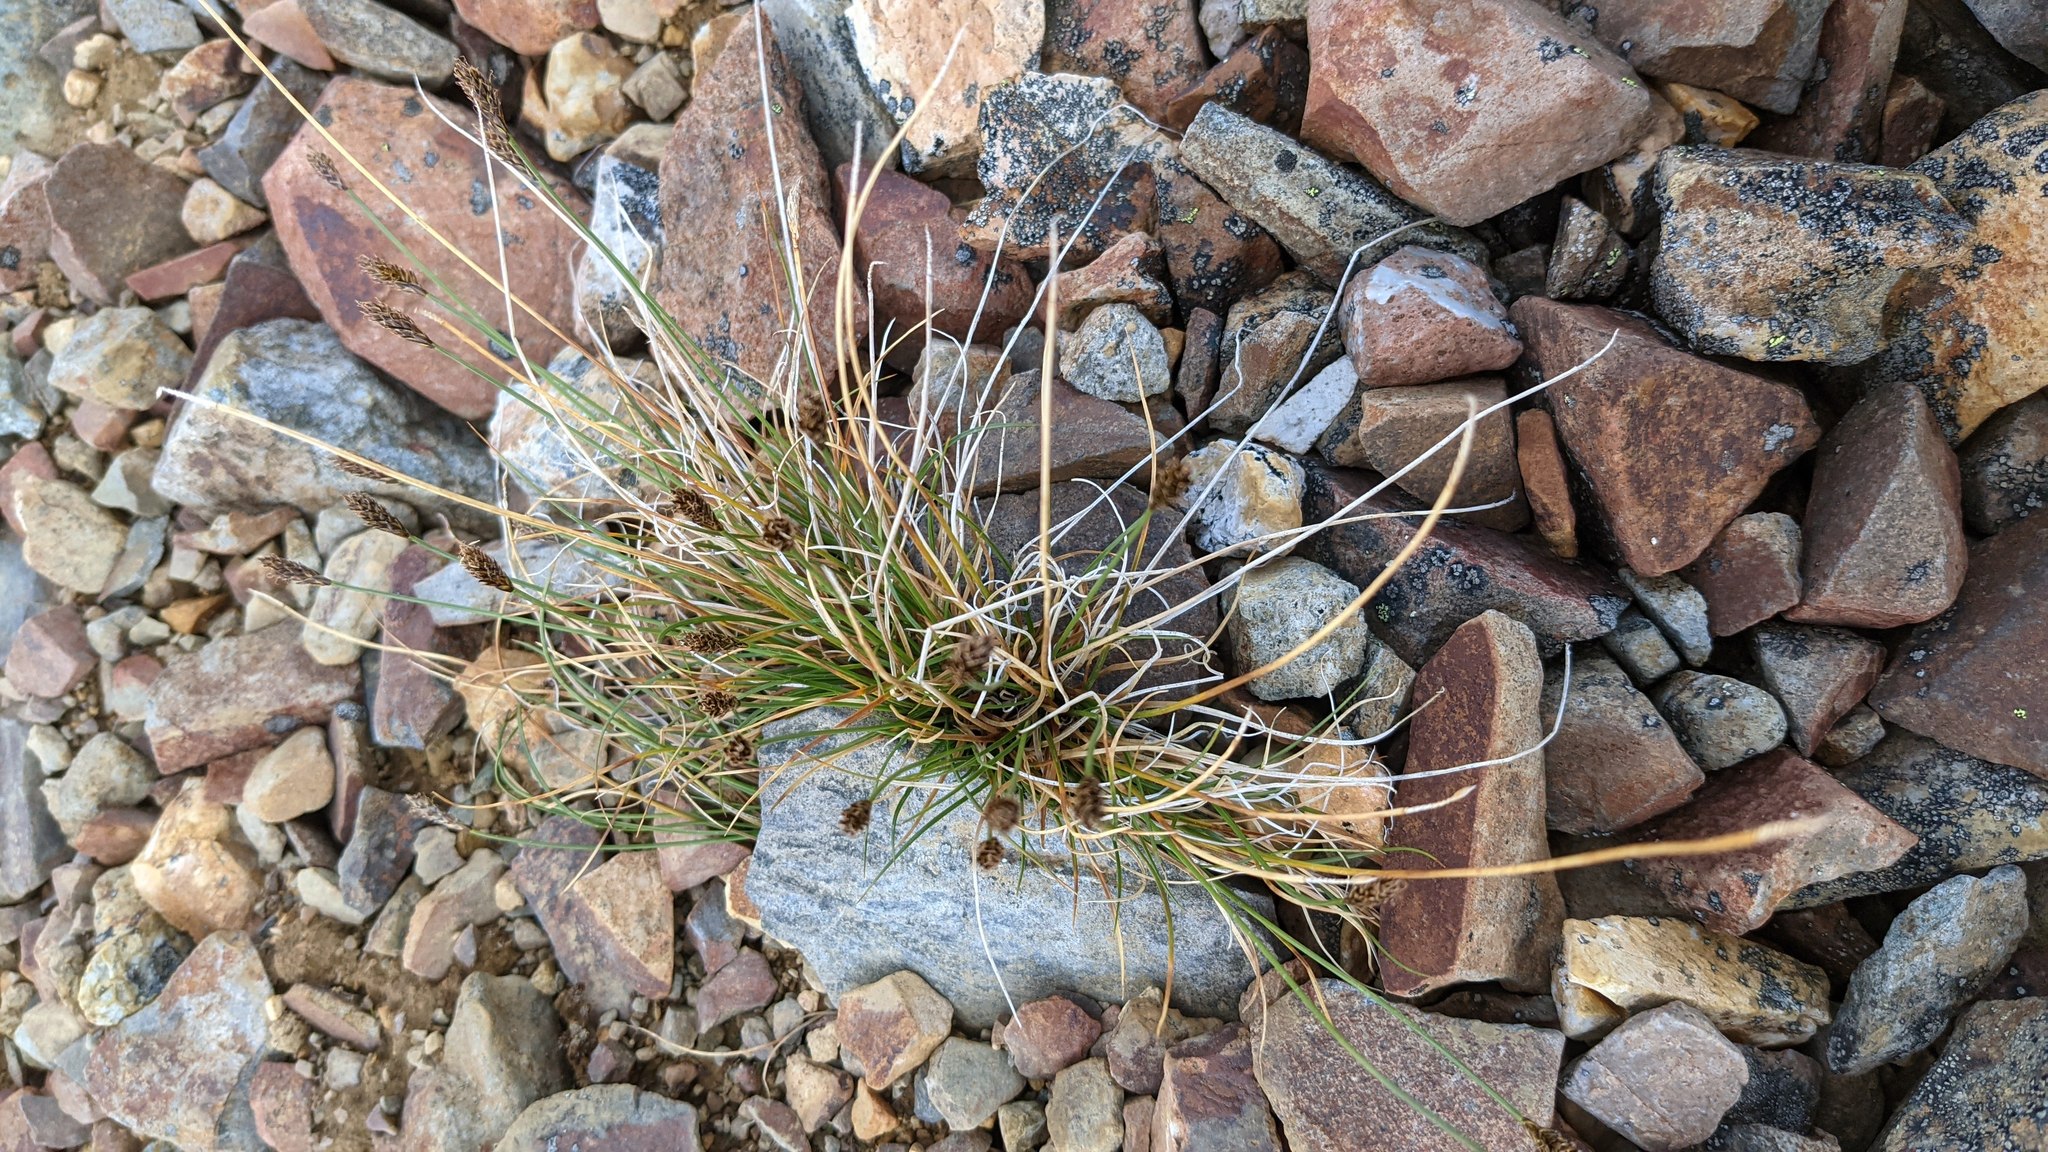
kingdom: Plantae
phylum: Tracheophyta
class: Liliopsida
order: Poales
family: Cyperaceae
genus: Carex
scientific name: Carex nardina
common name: Nard sedge
